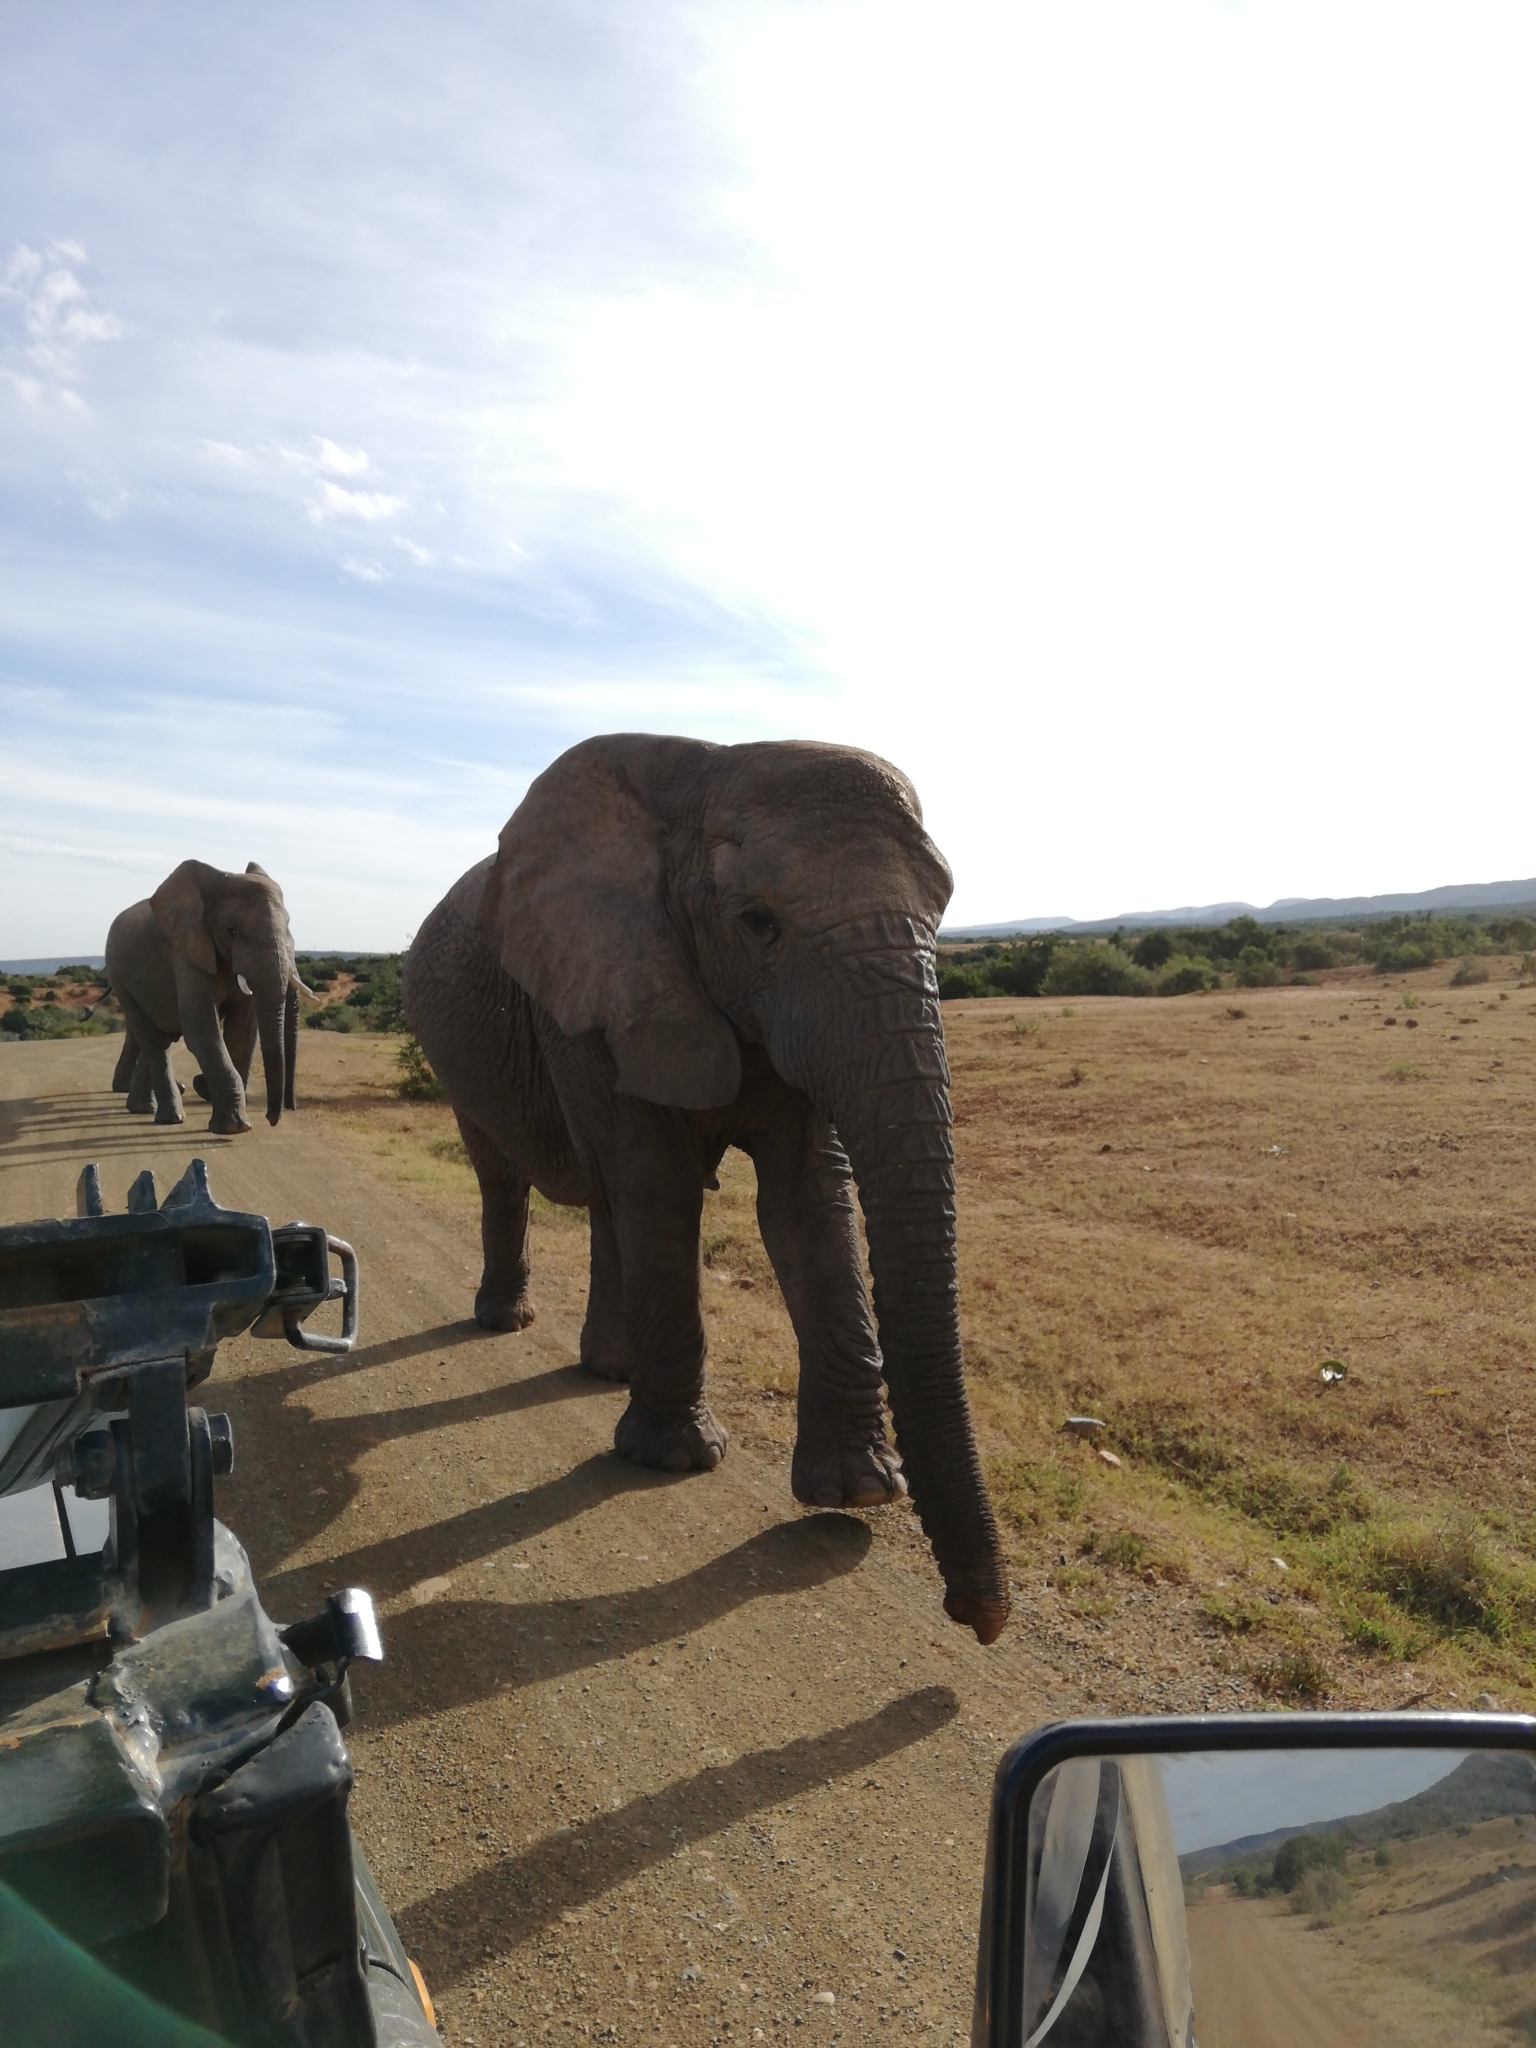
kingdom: Animalia
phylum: Chordata
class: Mammalia
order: Proboscidea
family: Elephantidae
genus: Loxodonta
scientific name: Loxodonta africana
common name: African elephant
